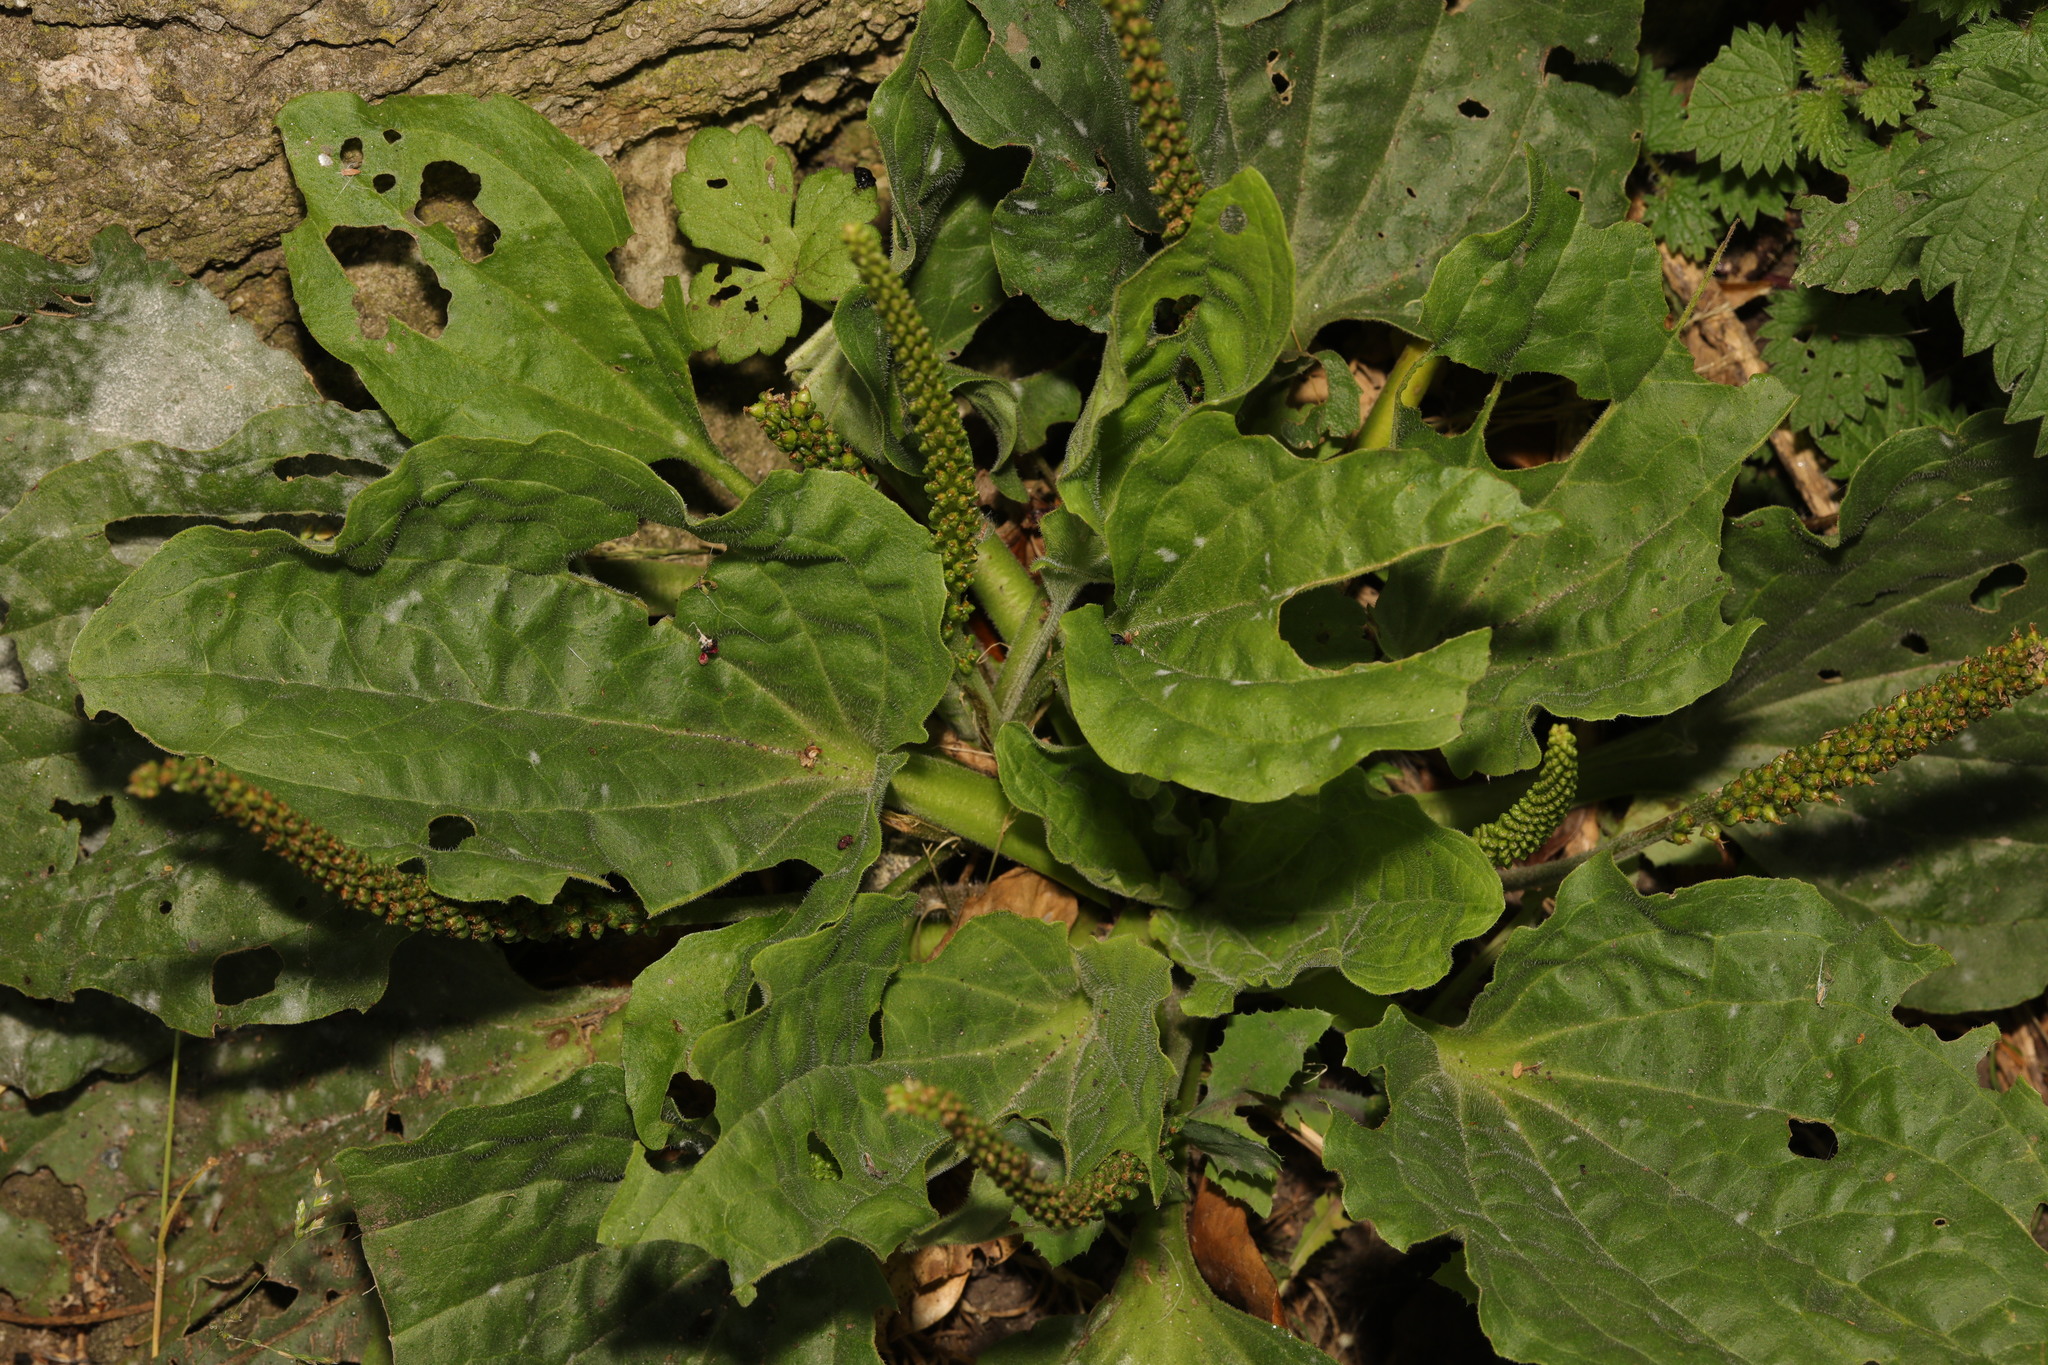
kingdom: Plantae
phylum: Tracheophyta
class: Magnoliopsida
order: Lamiales
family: Plantaginaceae
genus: Plantago
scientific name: Plantago major
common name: Common plantain
